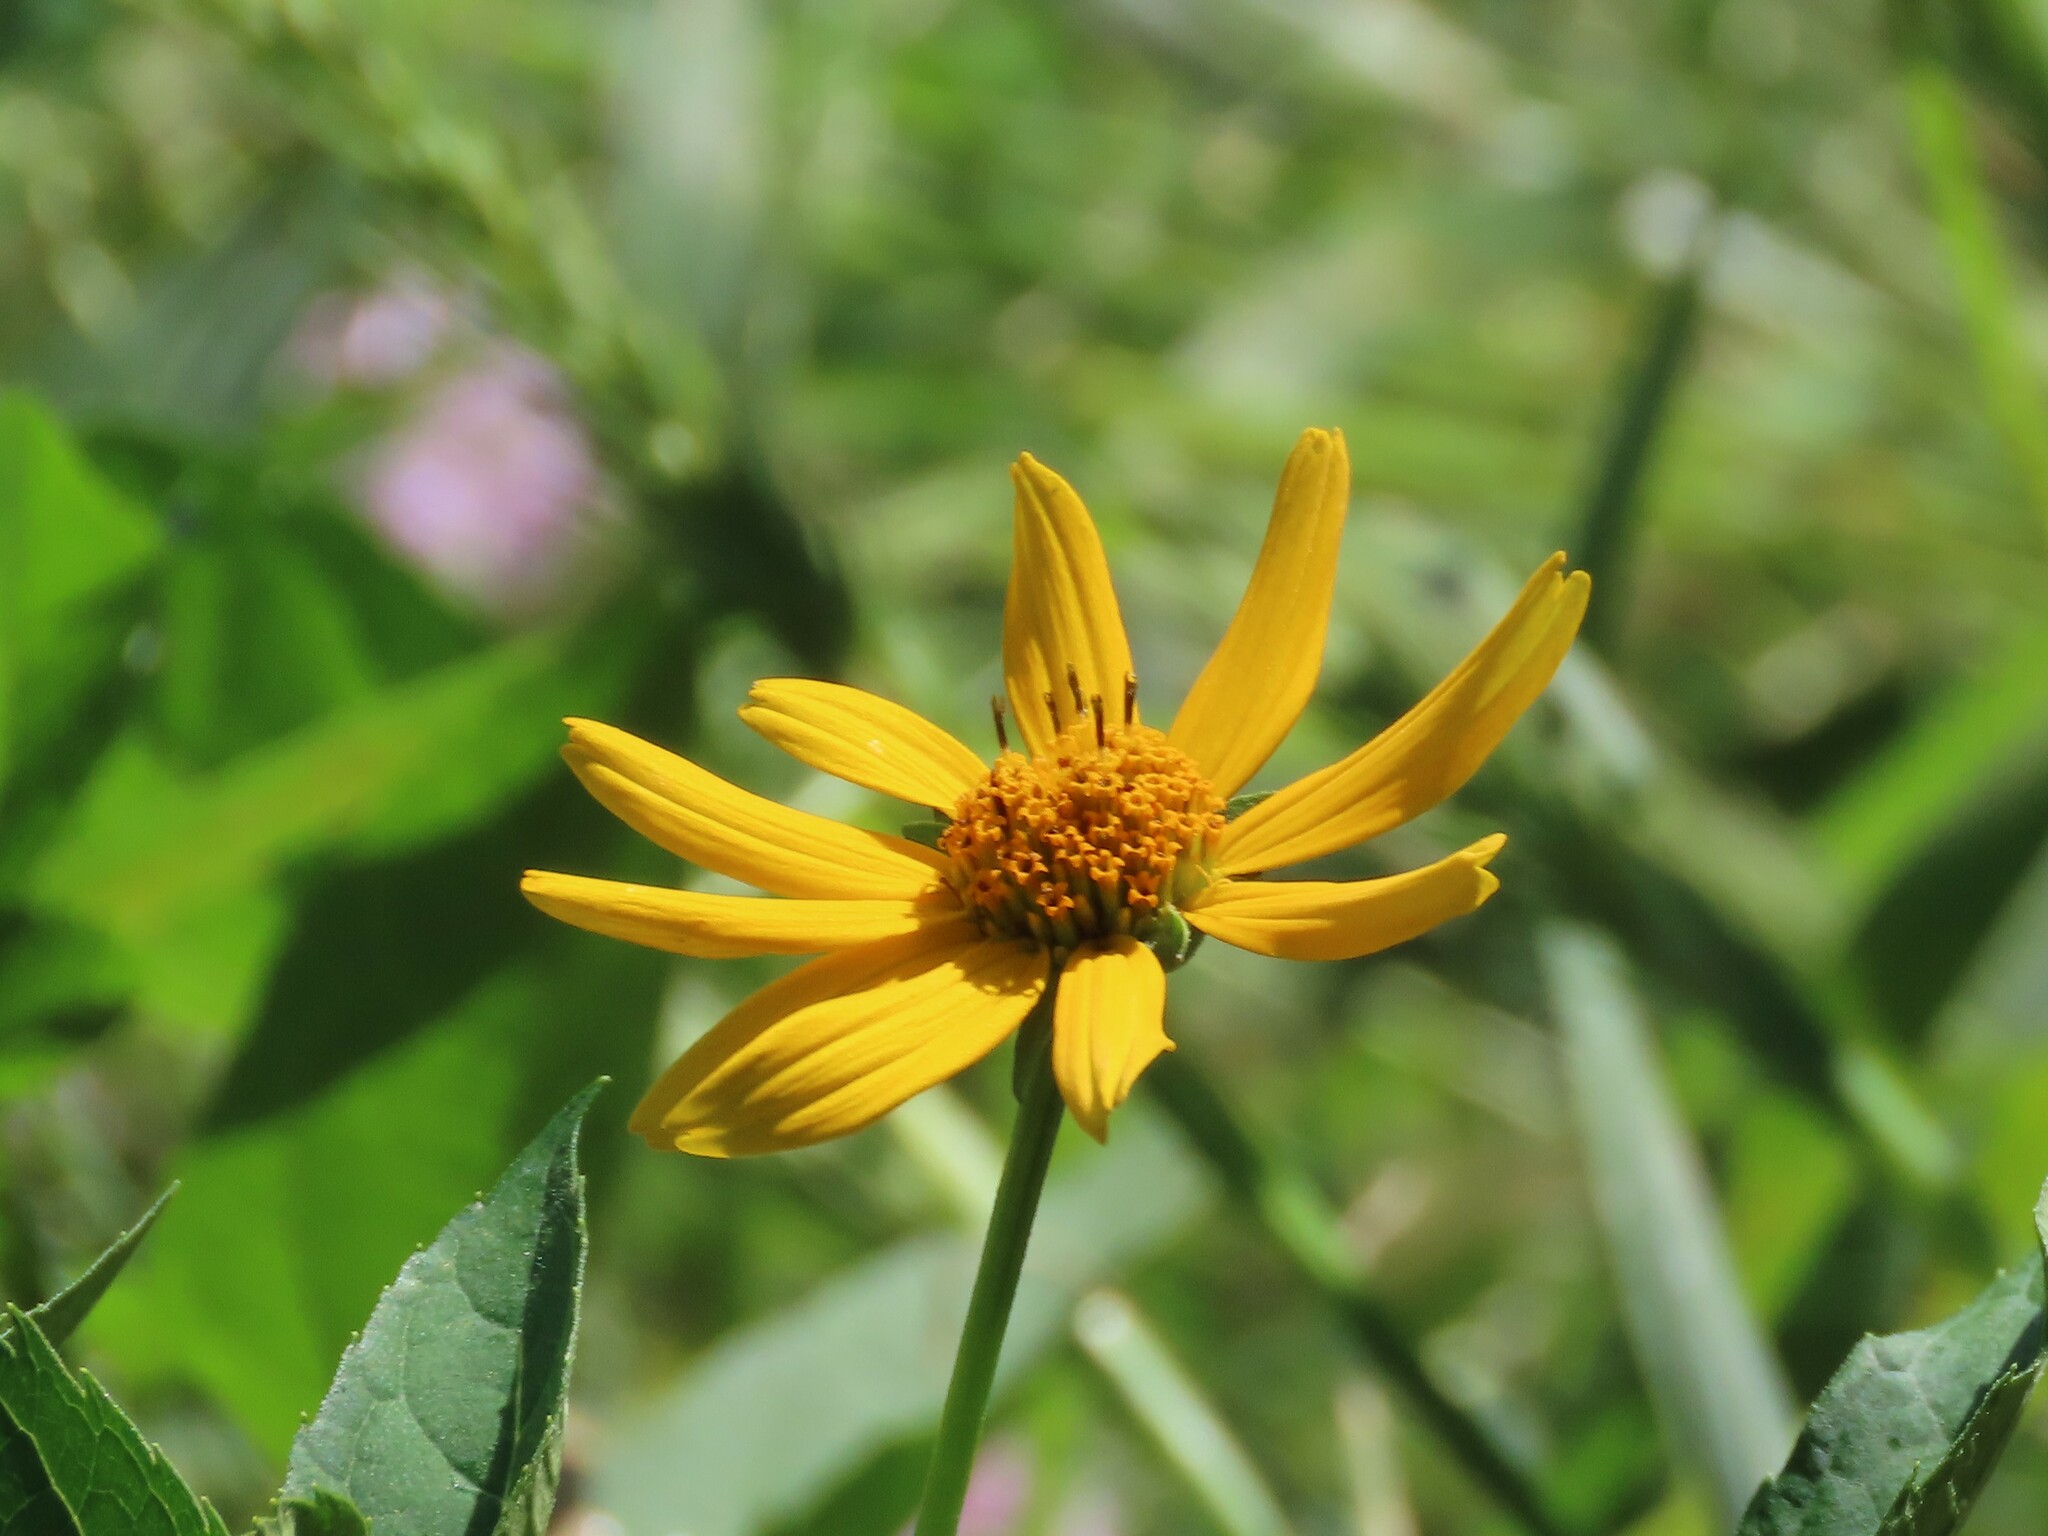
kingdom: Plantae
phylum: Tracheophyta
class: Magnoliopsida
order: Asterales
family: Asteraceae
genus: Heliopsis
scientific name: Heliopsis helianthoides
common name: False sunflower
